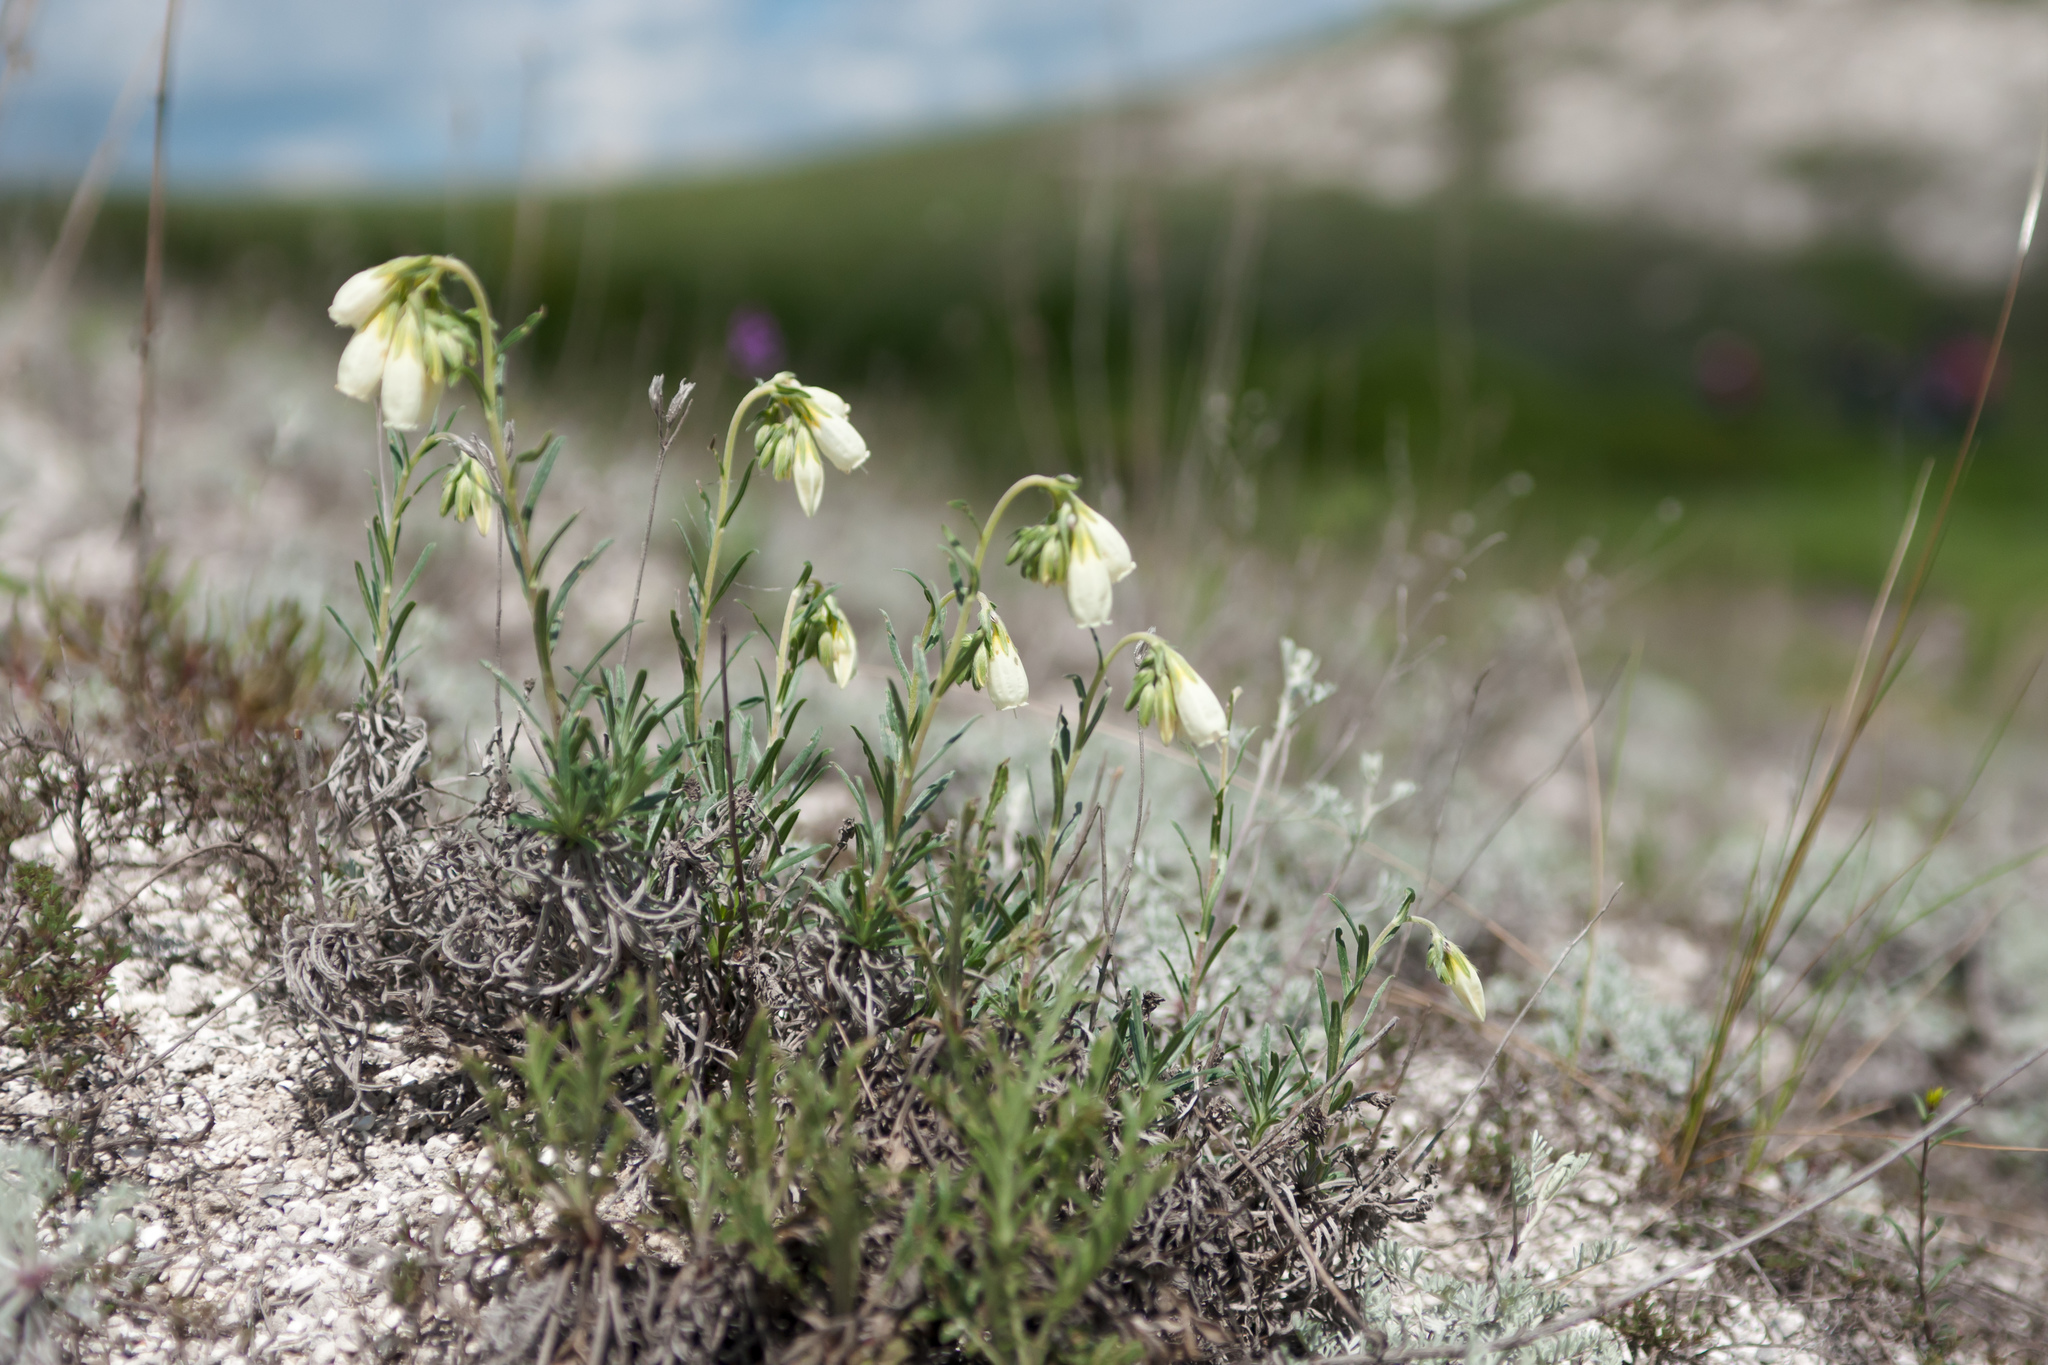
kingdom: Plantae
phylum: Tracheophyta
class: Magnoliopsida
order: Boraginales
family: Boraginaceae
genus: Onosma
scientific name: Onosma simplicissima
